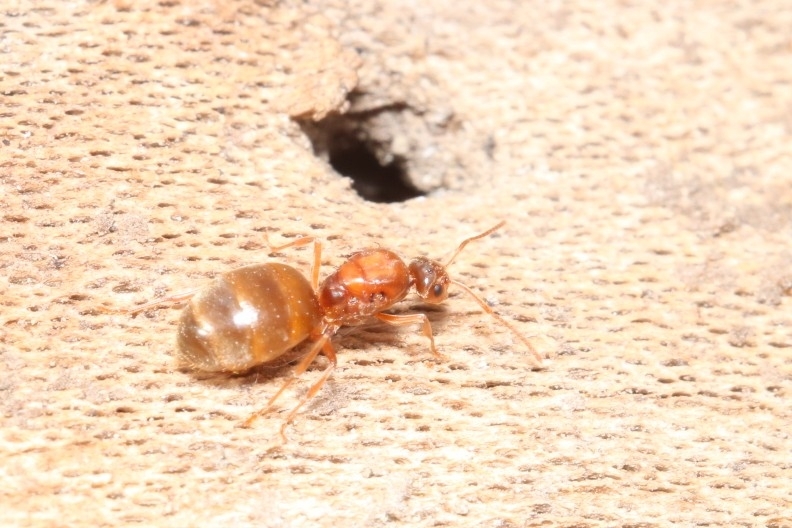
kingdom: Animalia
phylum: Arthropoda
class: Insecta
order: Hymenoptera
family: Formicidae
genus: Prenolepis
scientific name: Prenolepis imparis
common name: Small honey ant
